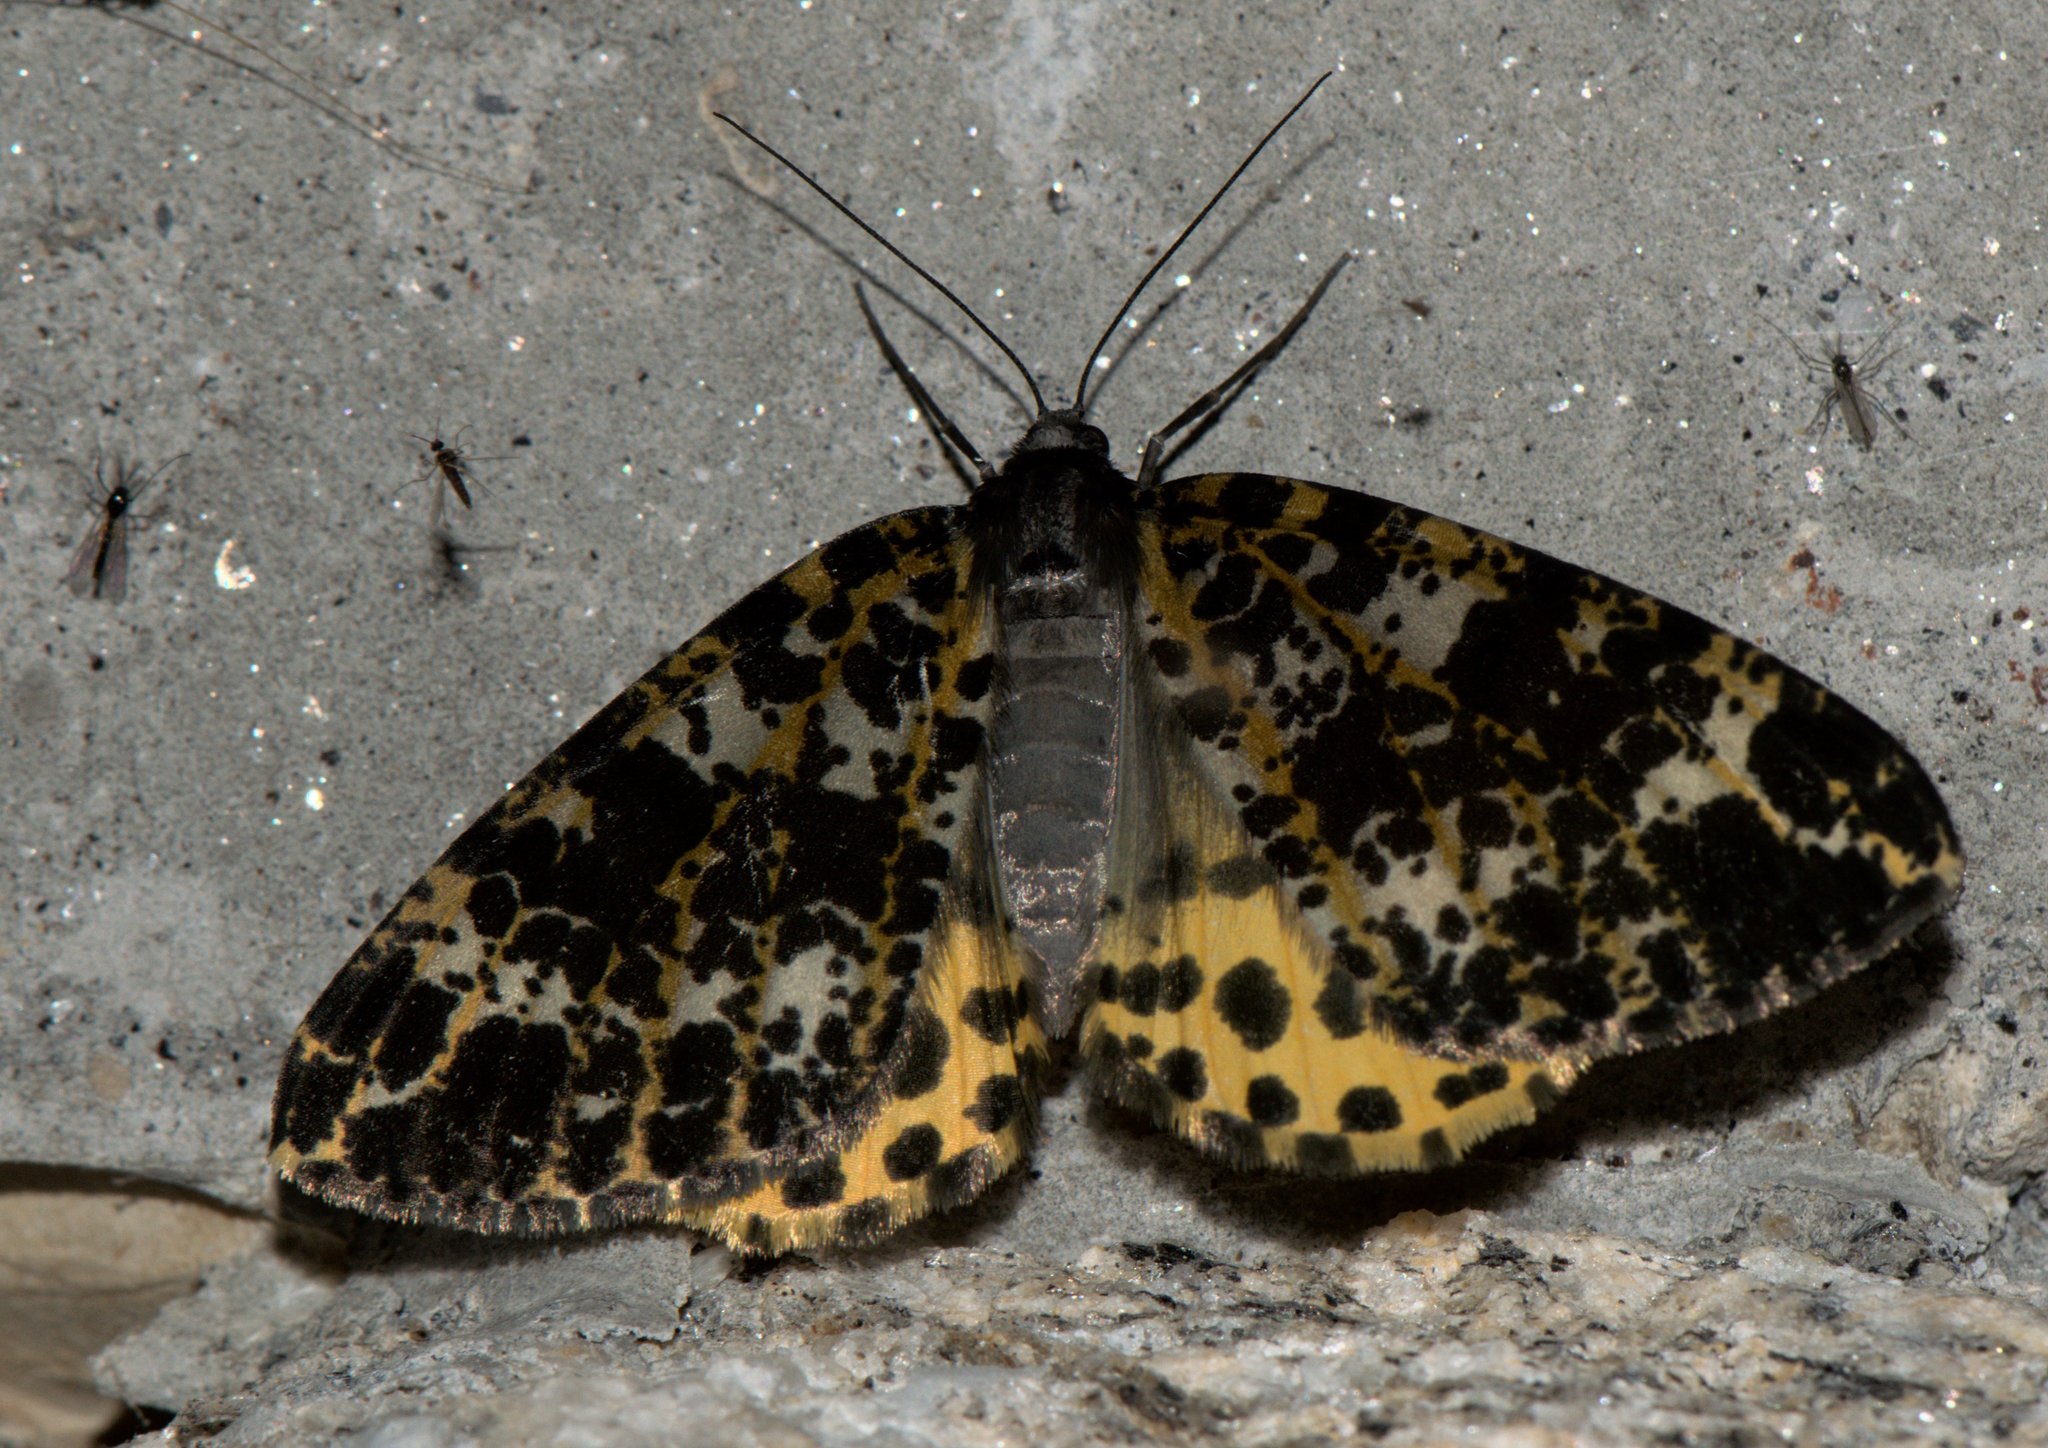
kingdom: Animalia
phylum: Arthropoda
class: Insecta
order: Lepidoptera
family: Geometridae
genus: Arichanna
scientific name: Arichanna sparsa
